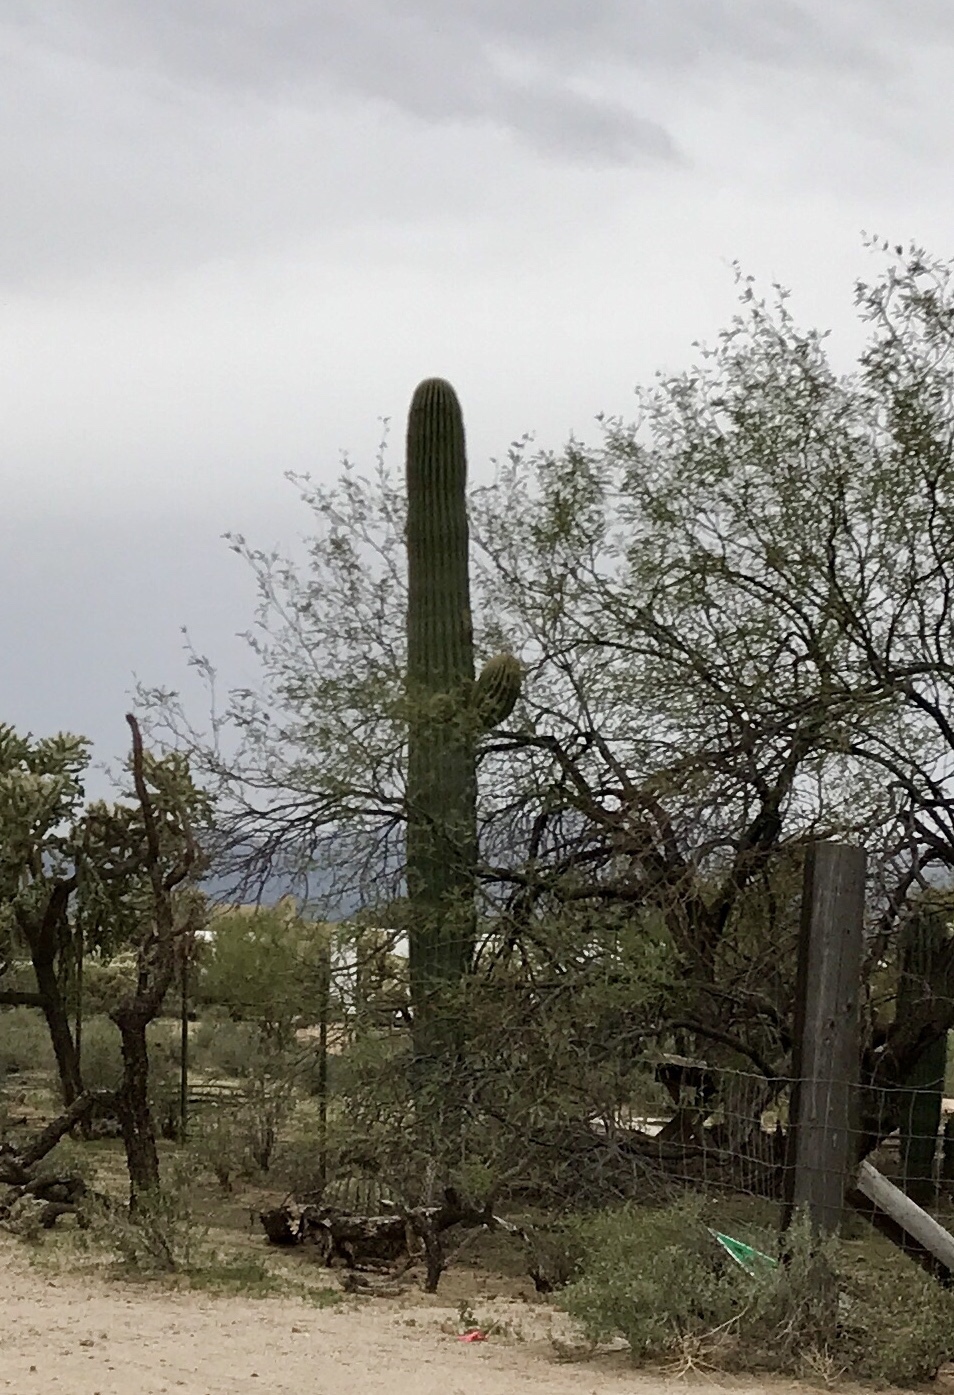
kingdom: Plantae
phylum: Tracheophyta
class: Magnoliopsida
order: Caryophyllales
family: Cactaceae
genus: Carnegiea
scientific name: Carnegiea gigantea
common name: Saguaro
